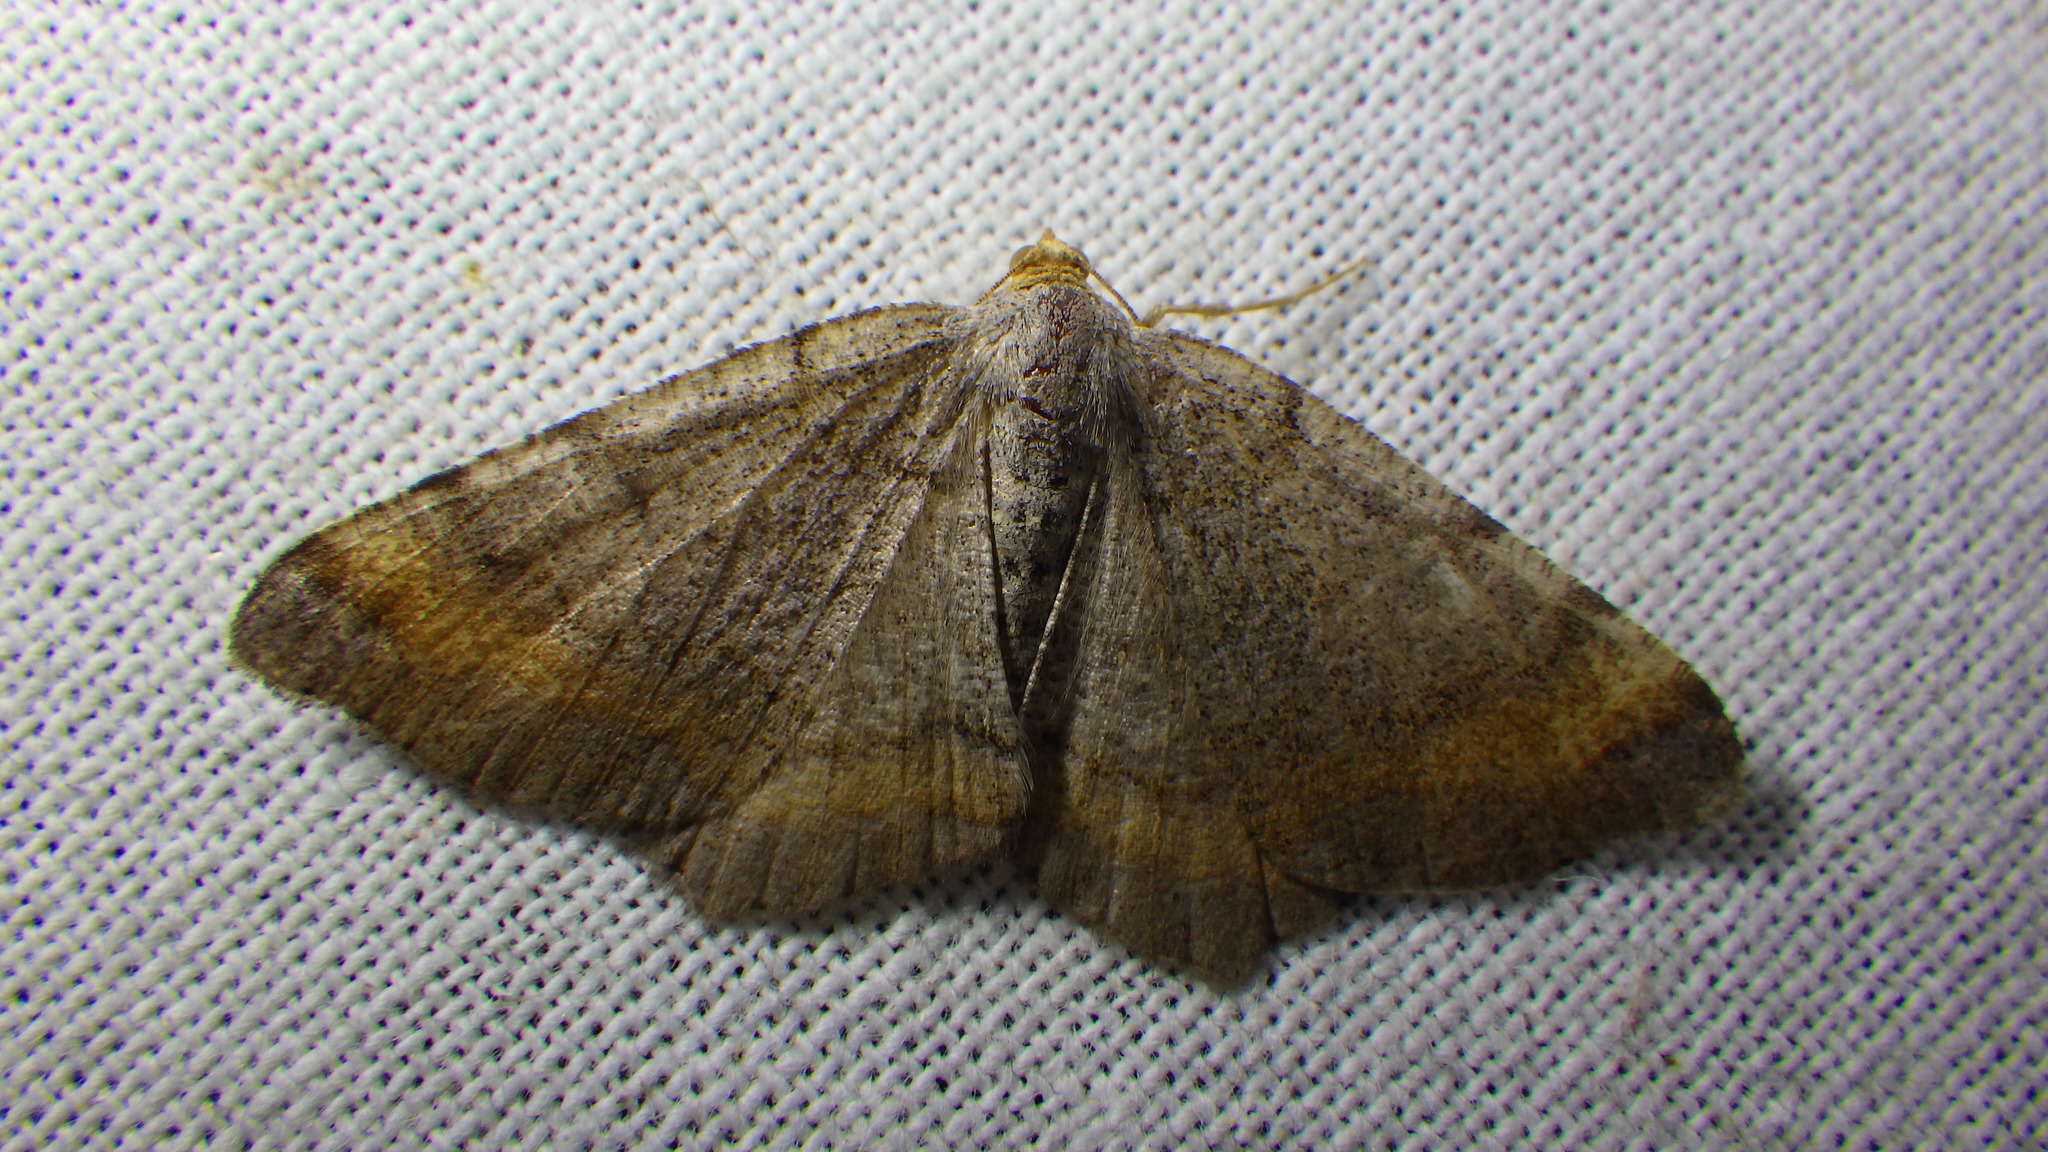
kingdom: Animalia
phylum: Arthropoda
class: Insecta
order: Lepidoptera
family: Geometridae
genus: Macaria
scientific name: Macaria liturata
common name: Tawny-barred angle
